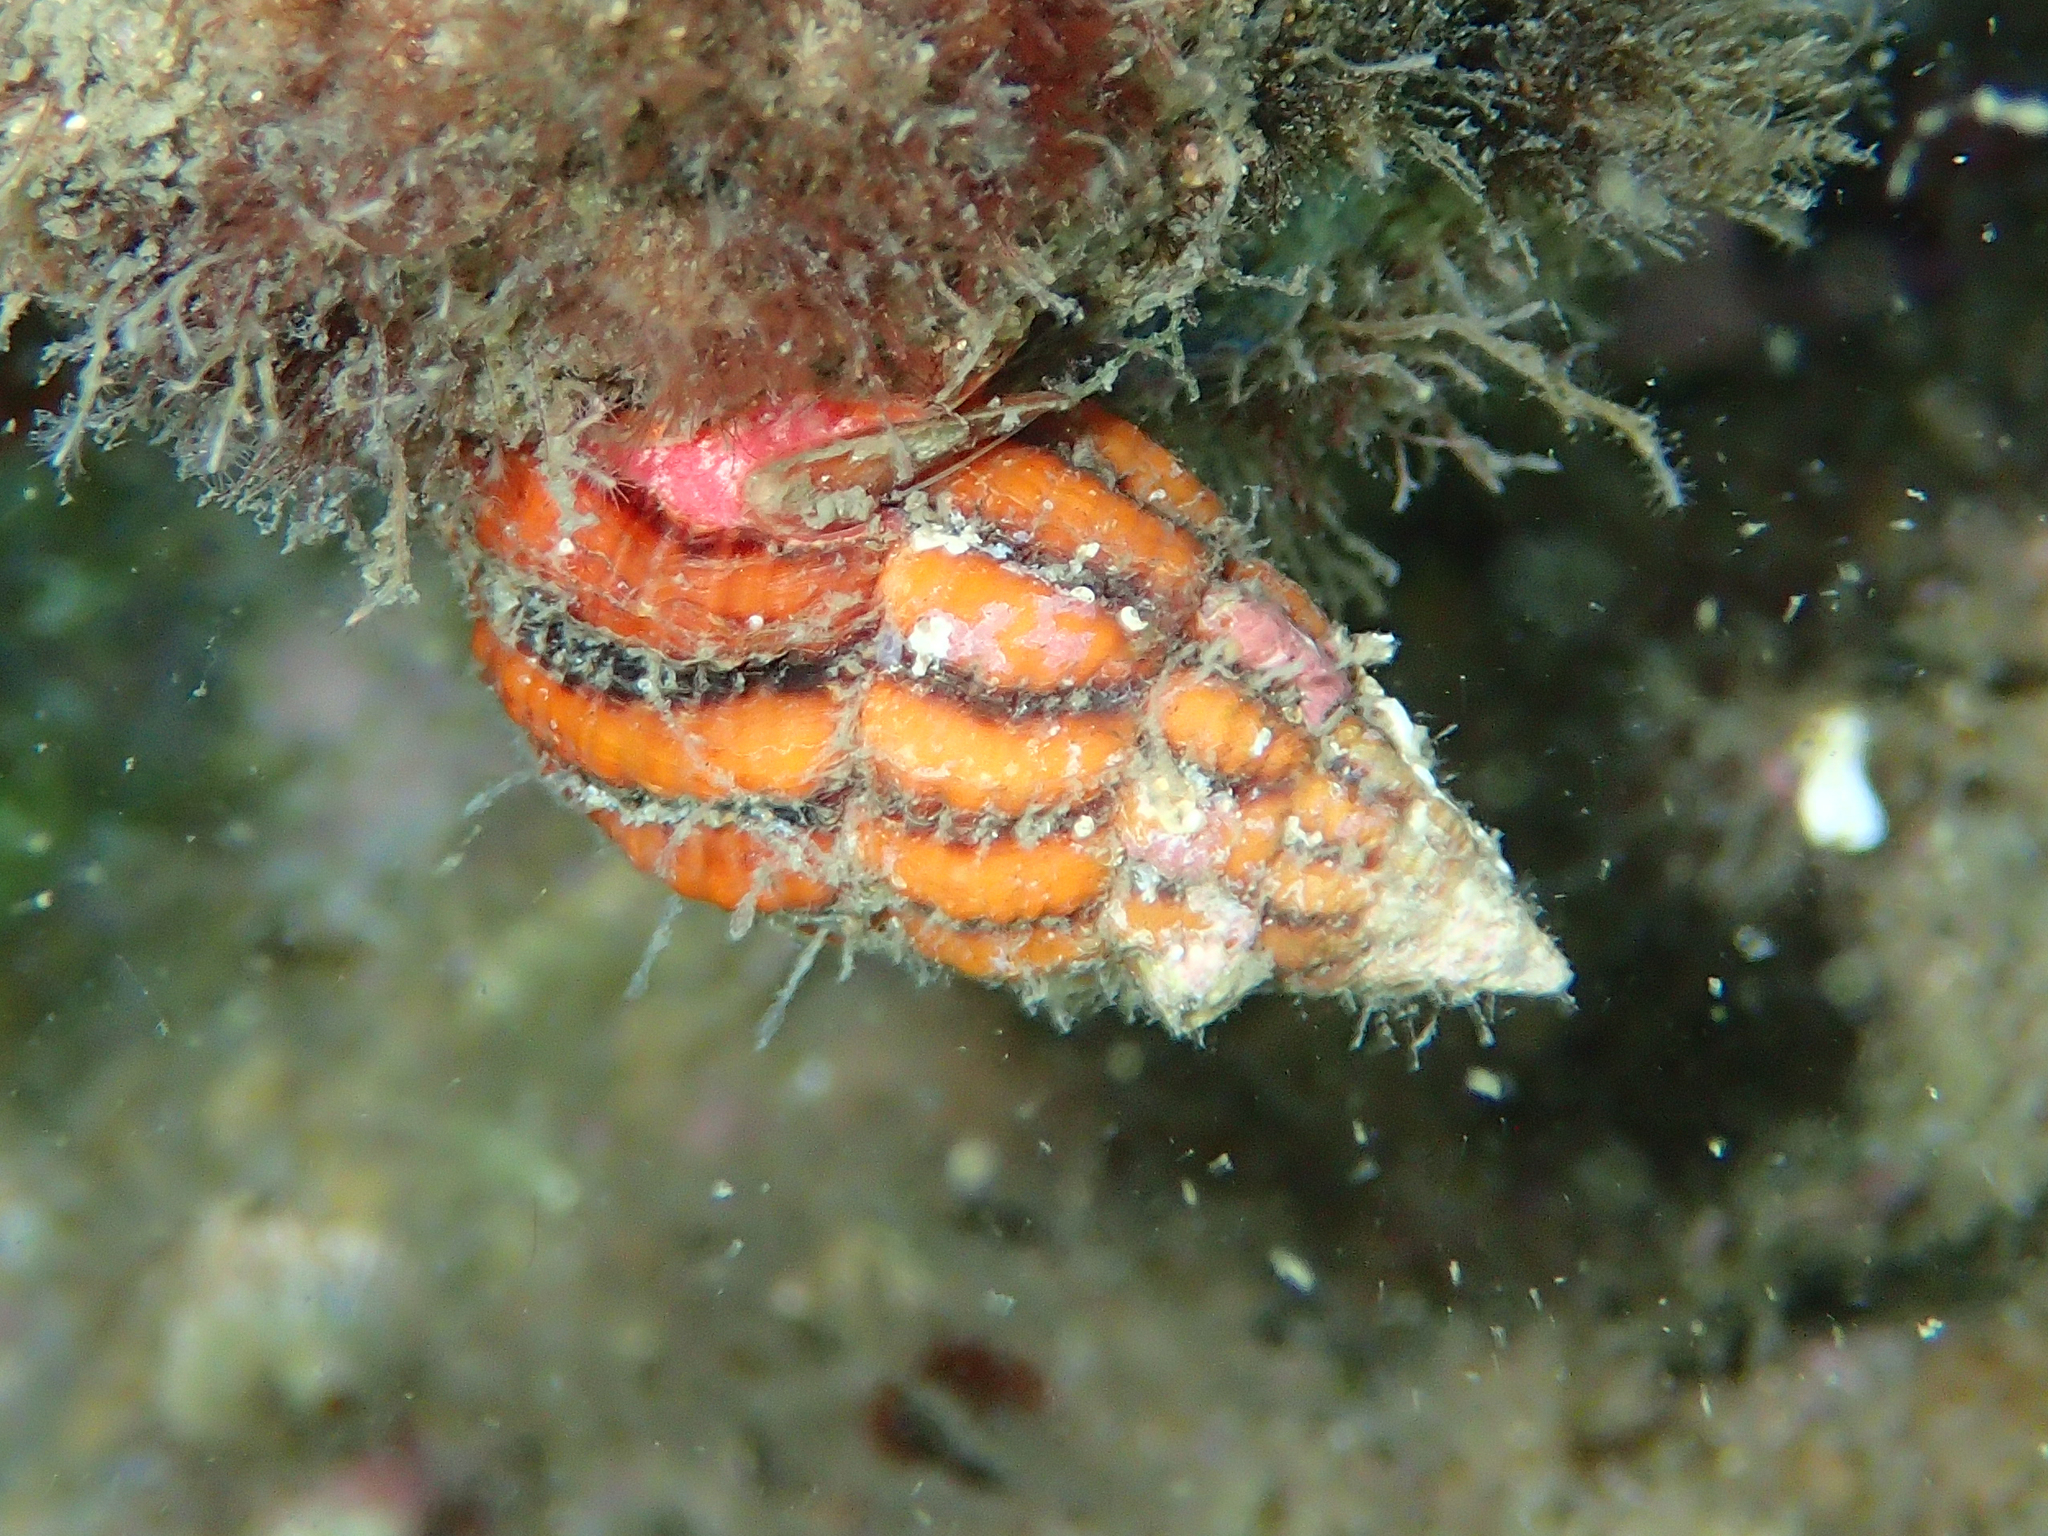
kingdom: Animalia
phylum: Mollusca
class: Gastropoda
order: Neogastropoda
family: Fasciolariidae
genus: Peristernia
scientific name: Peristernia reincarnata
